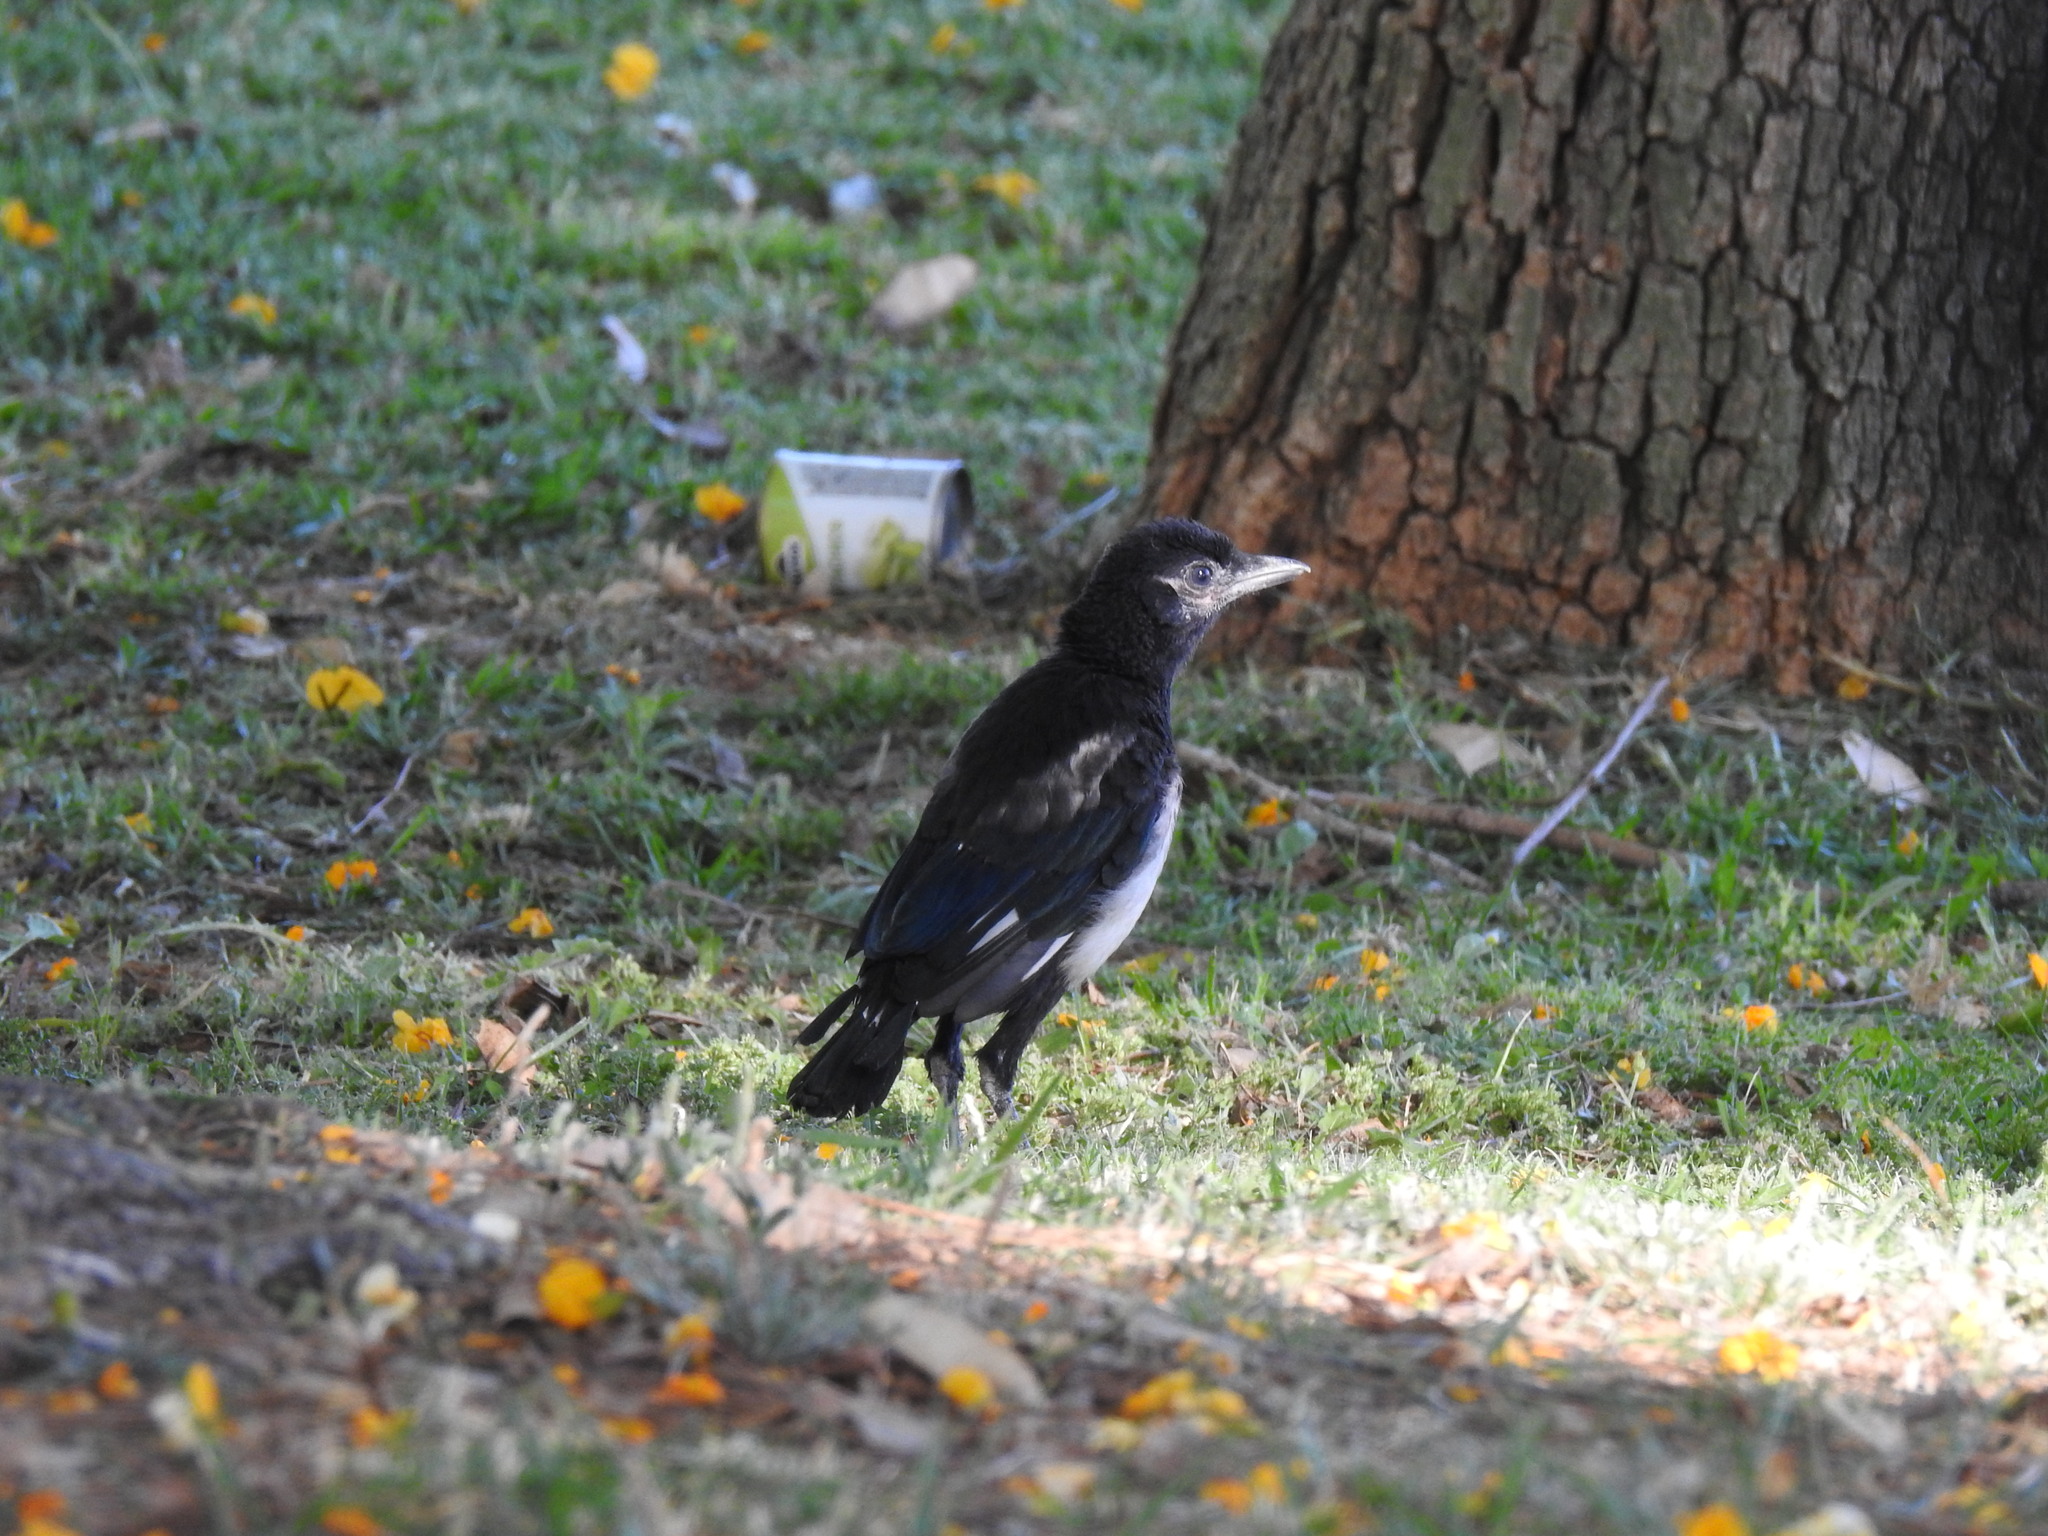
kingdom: Animalia
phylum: Chordata
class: Aves
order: Passeriformes
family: Corvidae
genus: Pica
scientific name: Pica pica
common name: Eurasian magpie
